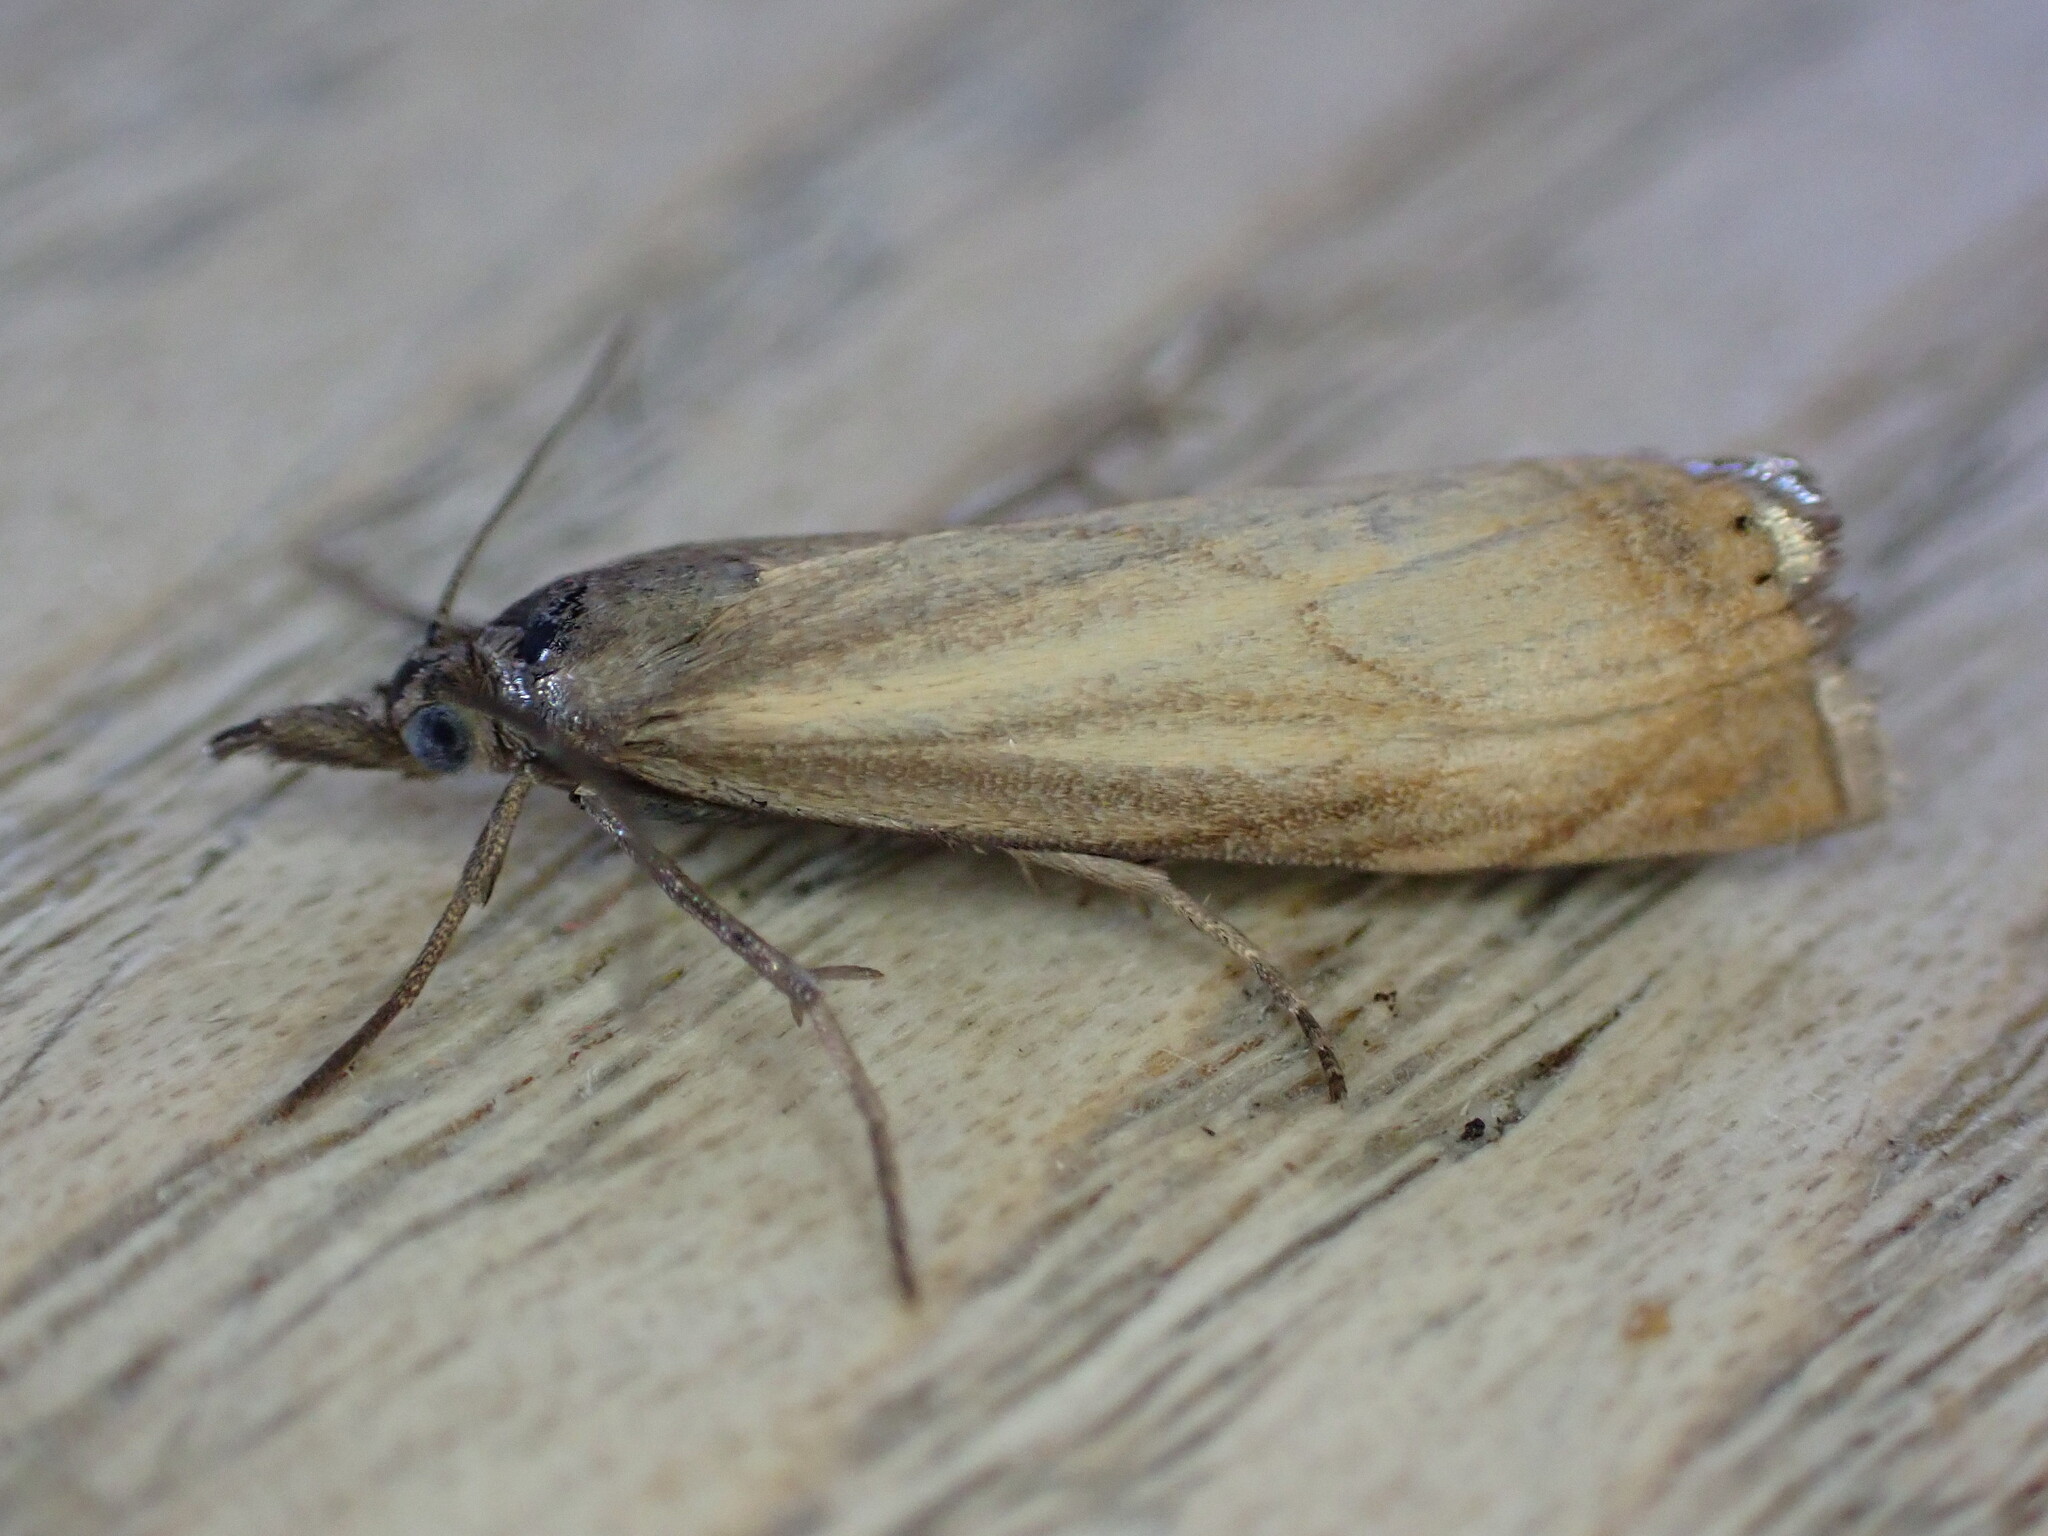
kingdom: Animalia
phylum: Arthropoda
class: Insecta
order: Lepidoptera
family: Crambidae
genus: Chrysoteuchia
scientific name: Chrysoteuchia culmella
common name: Garden grass-veneer
